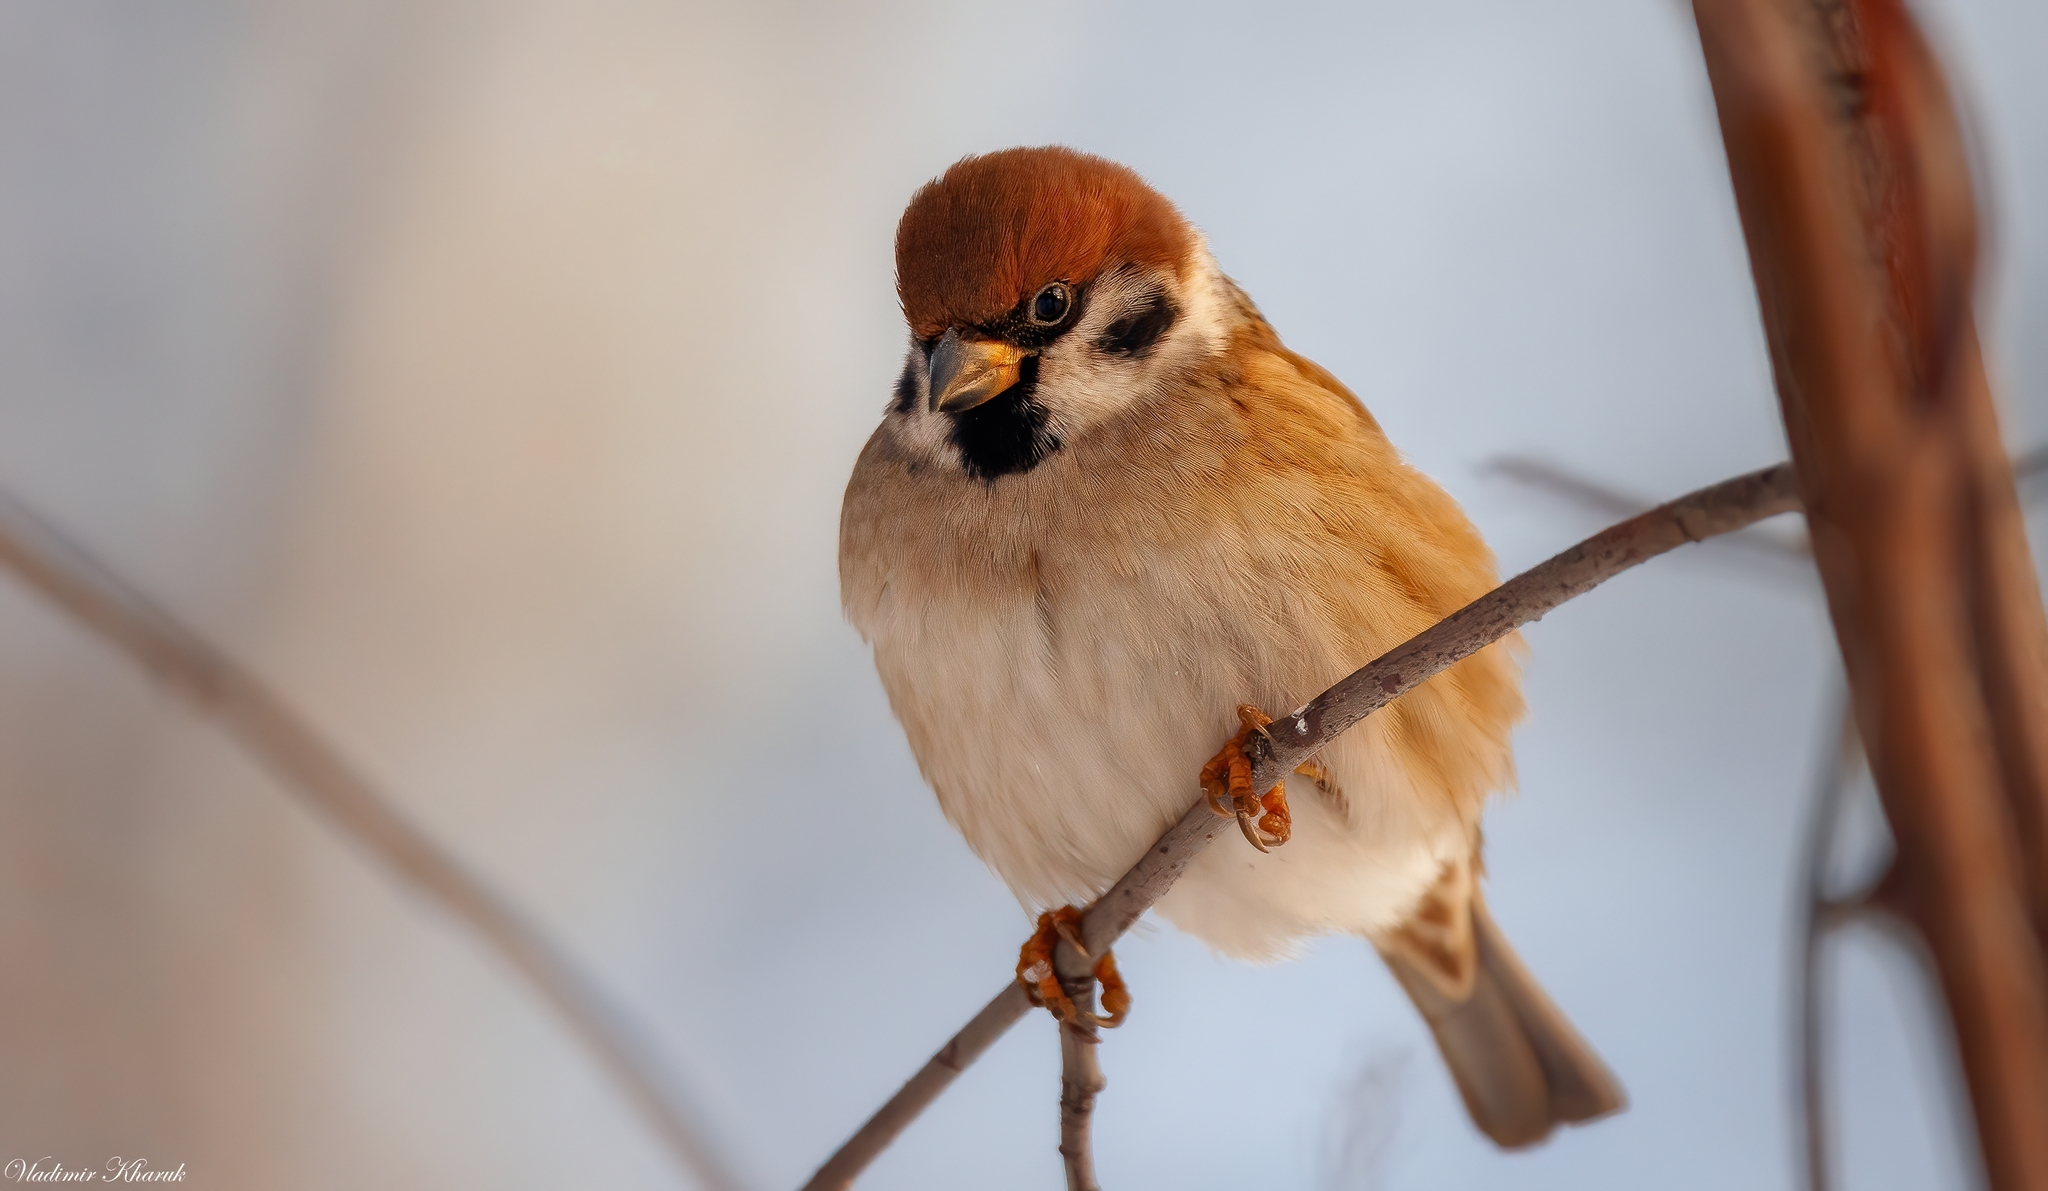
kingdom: Animalia
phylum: Chordata
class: Aves
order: Passeriformes
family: Passeridae
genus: Passer
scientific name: Passer montanus
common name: Eurasian tree sparrow
